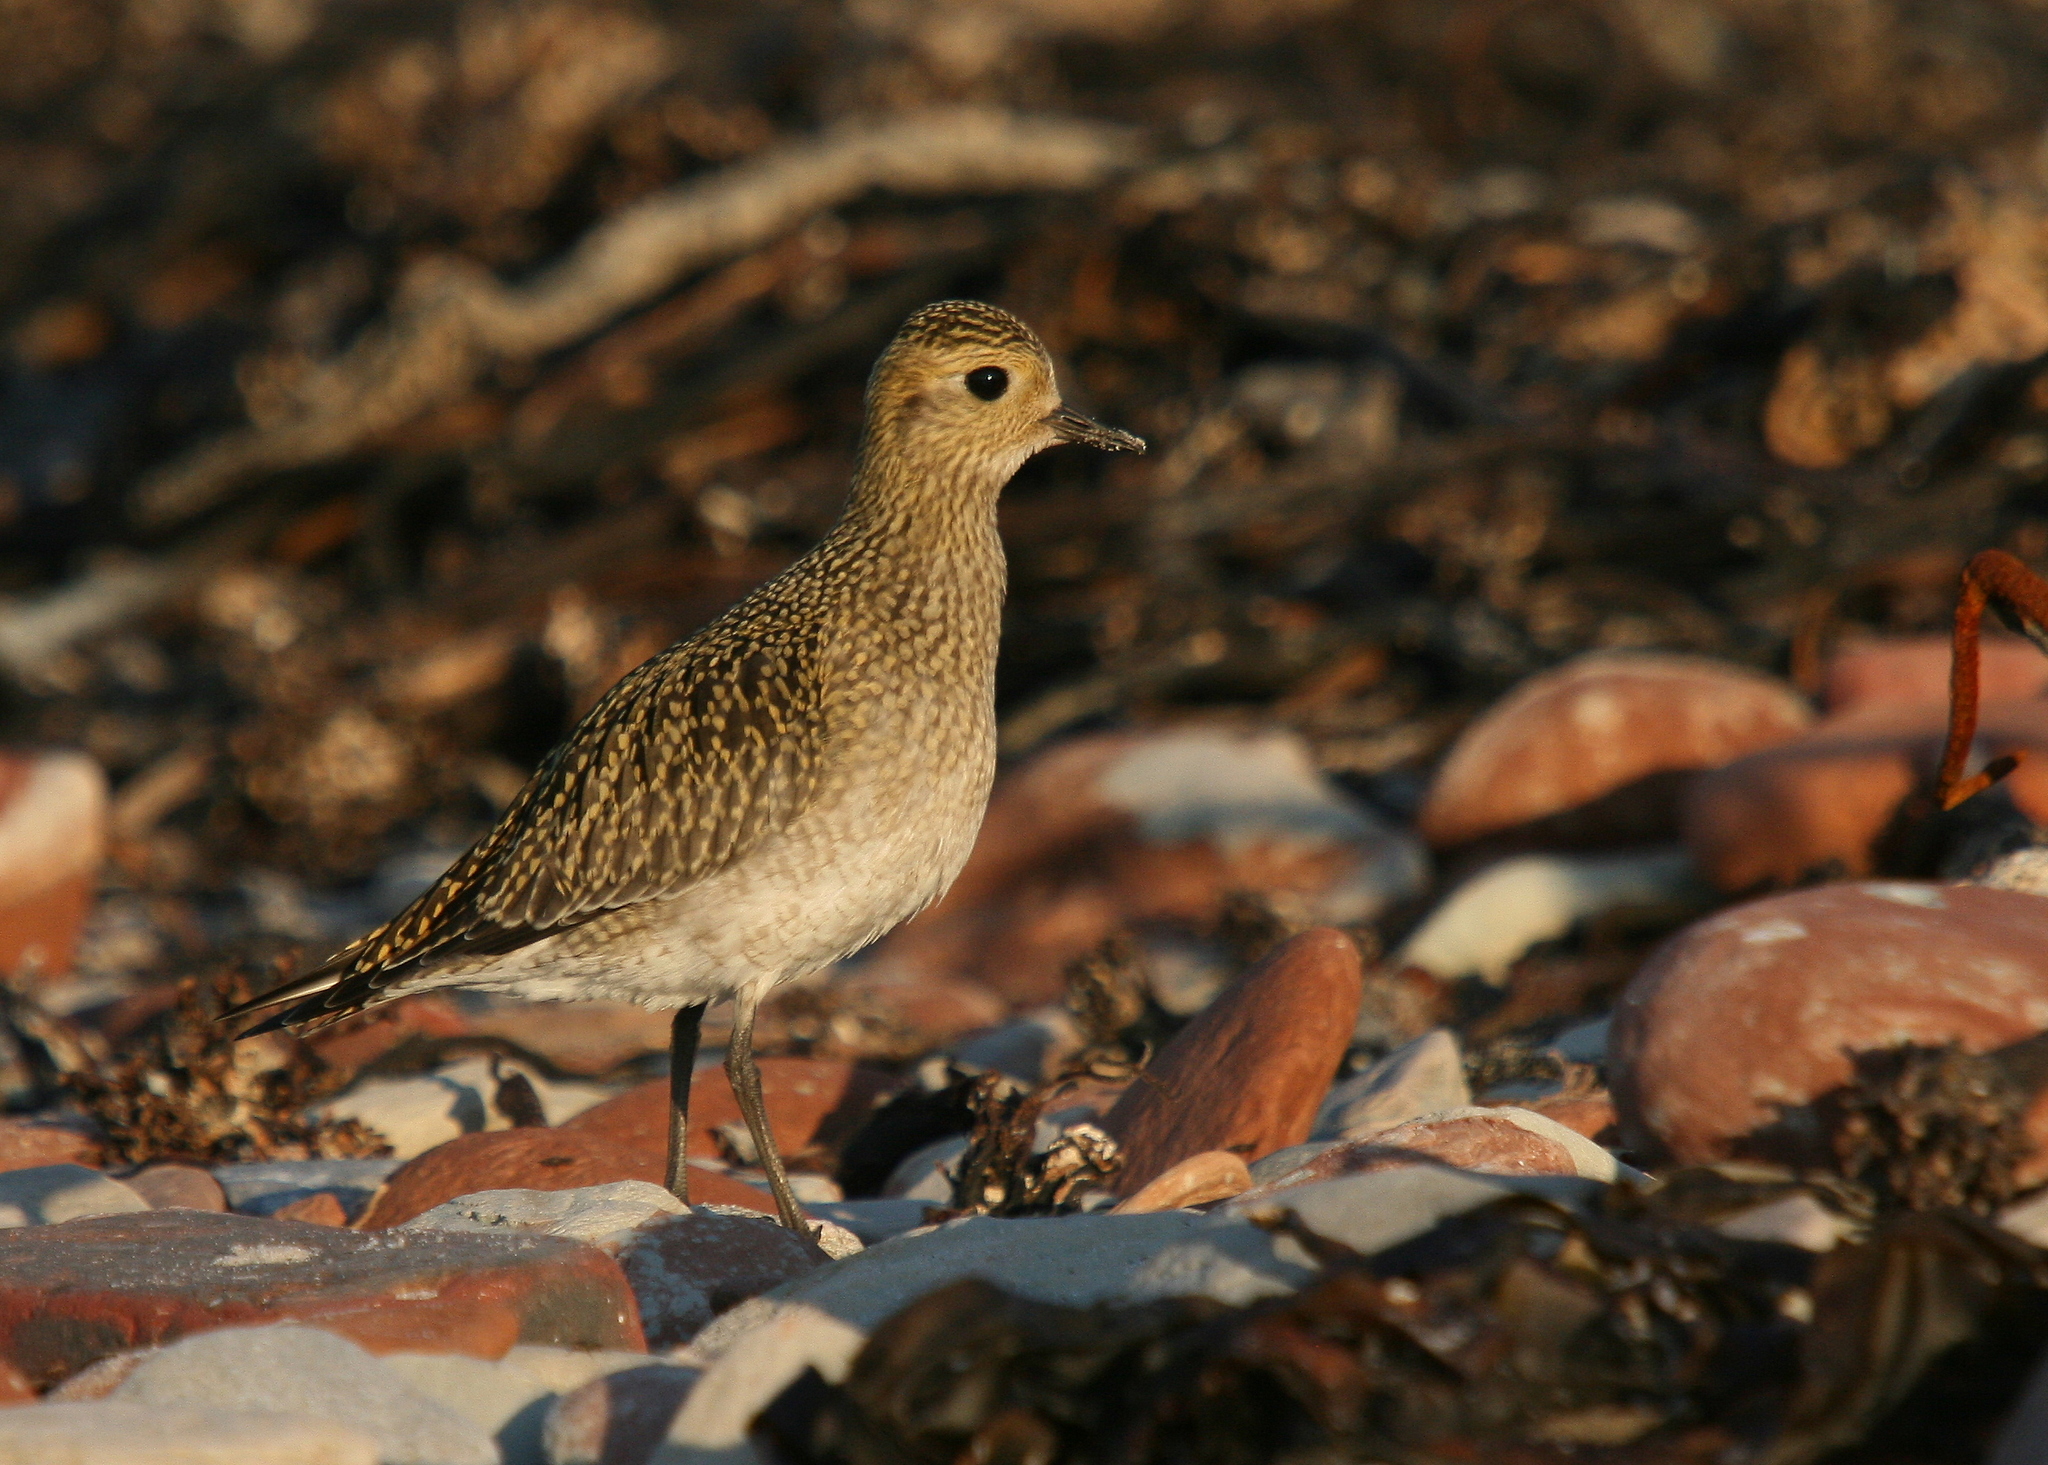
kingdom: Animalia
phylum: Chordata
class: Aves
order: Charadriiformes
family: Charadriidae
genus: Pluvialis
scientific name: Pluvialis apricaria
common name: European golden plover
